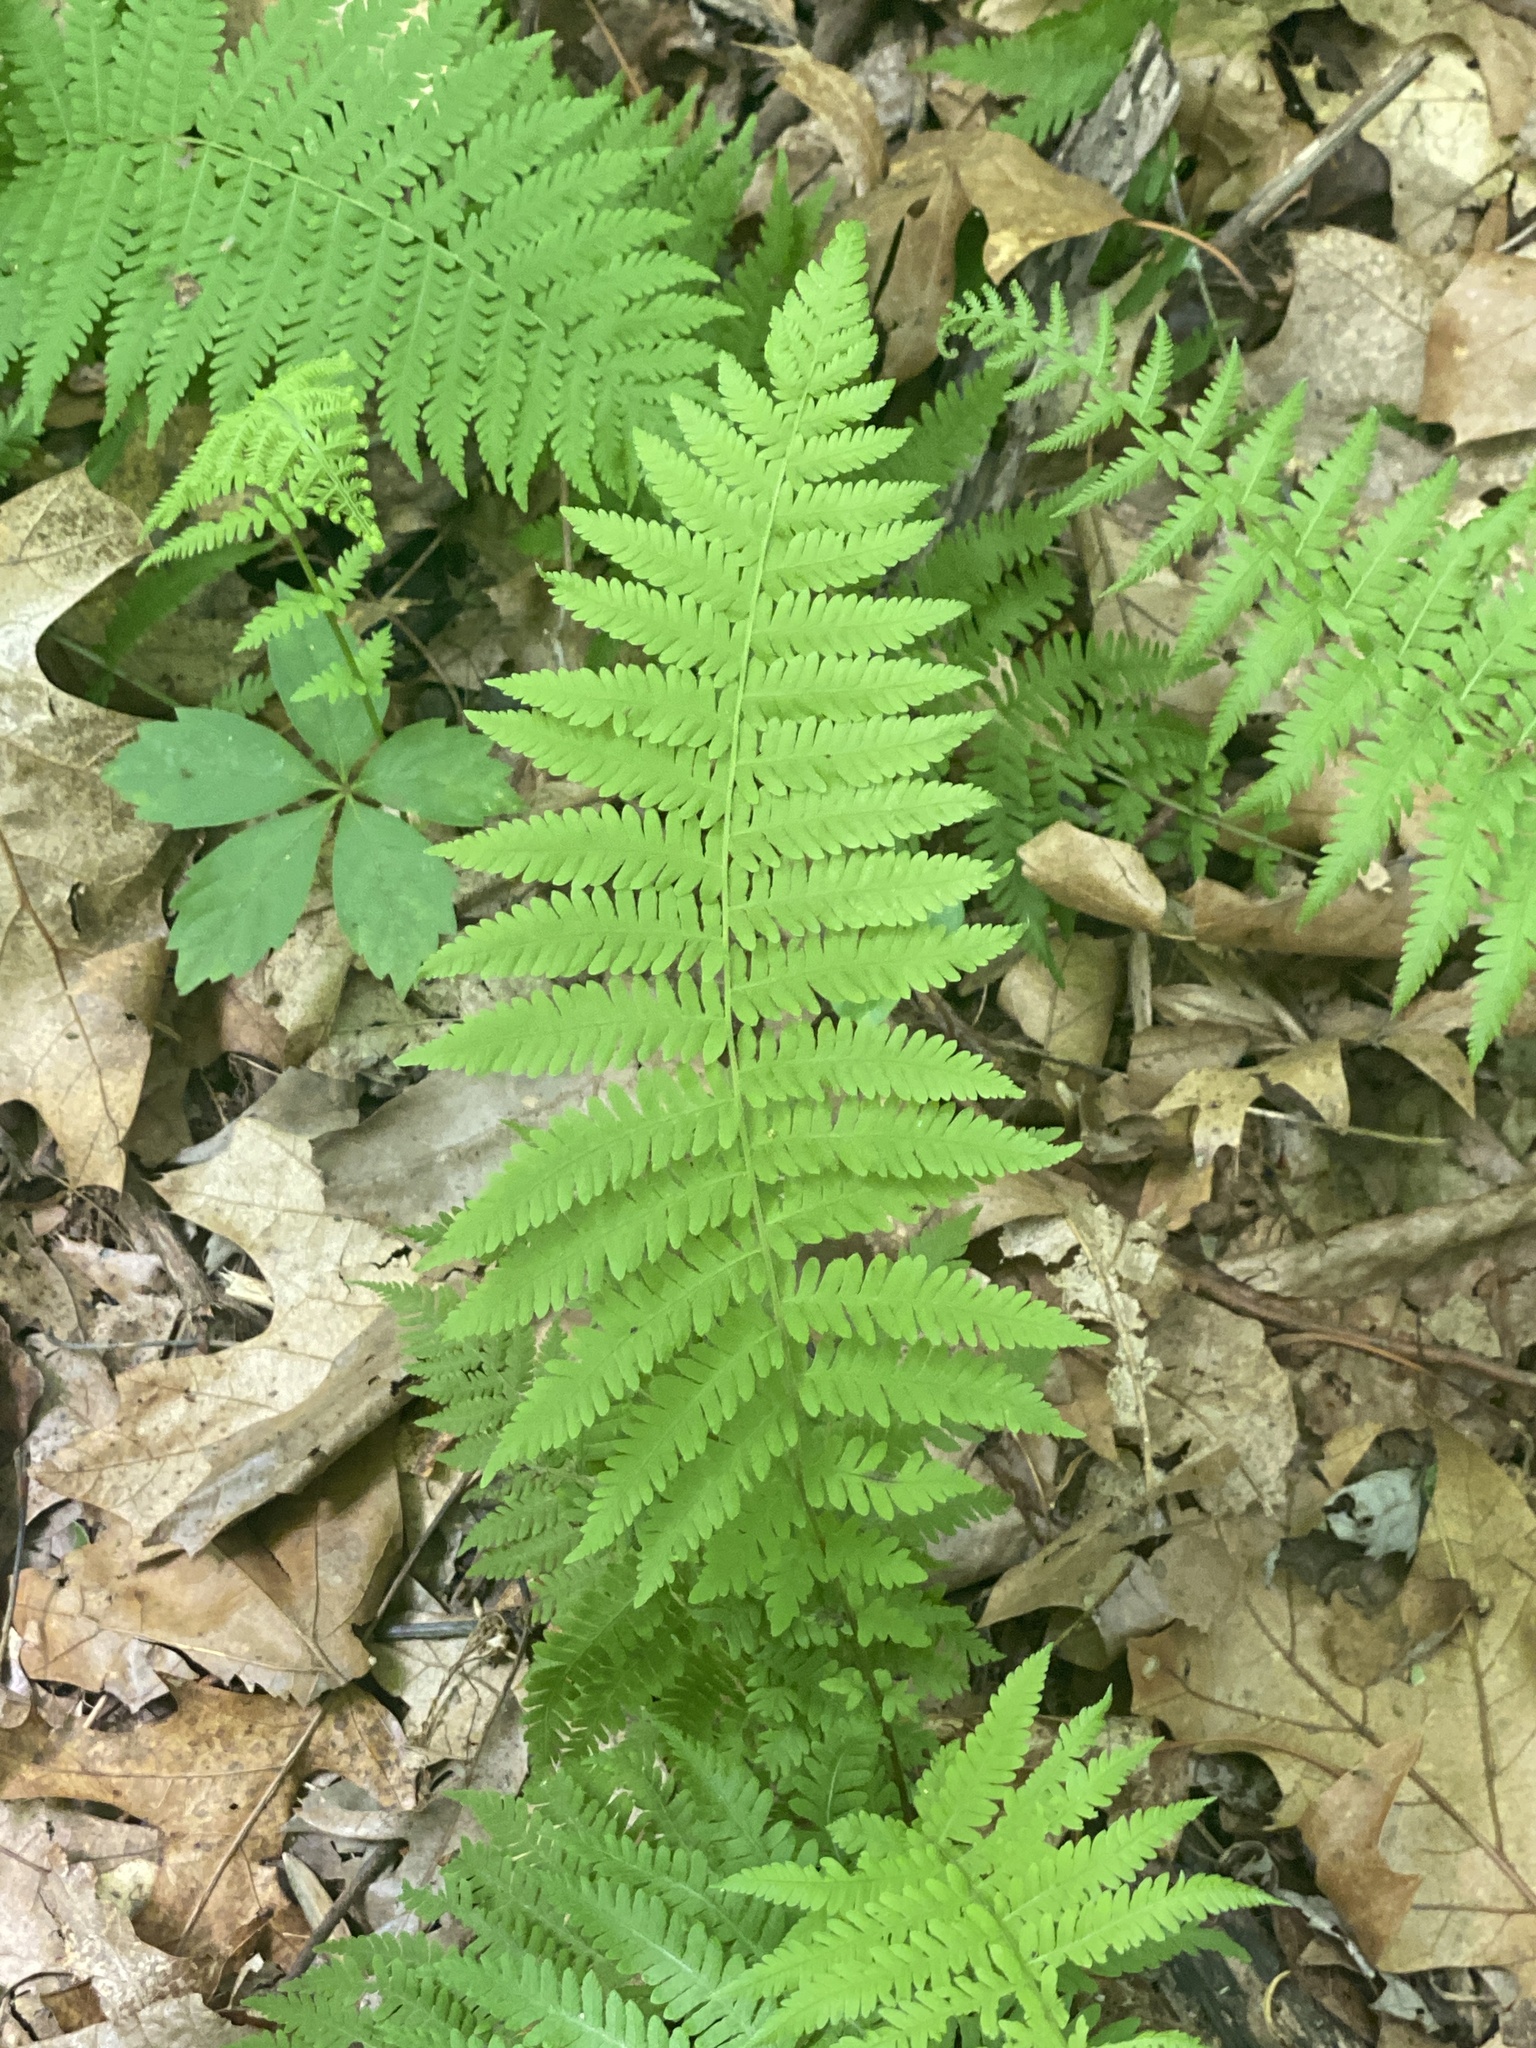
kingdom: Plantae
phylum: Tracheophyta
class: Polypodiopsida
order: Polypodiales
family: Thelypteridaceae
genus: Amauropelta
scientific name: Amauropelta noveboracensis
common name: New york fern
